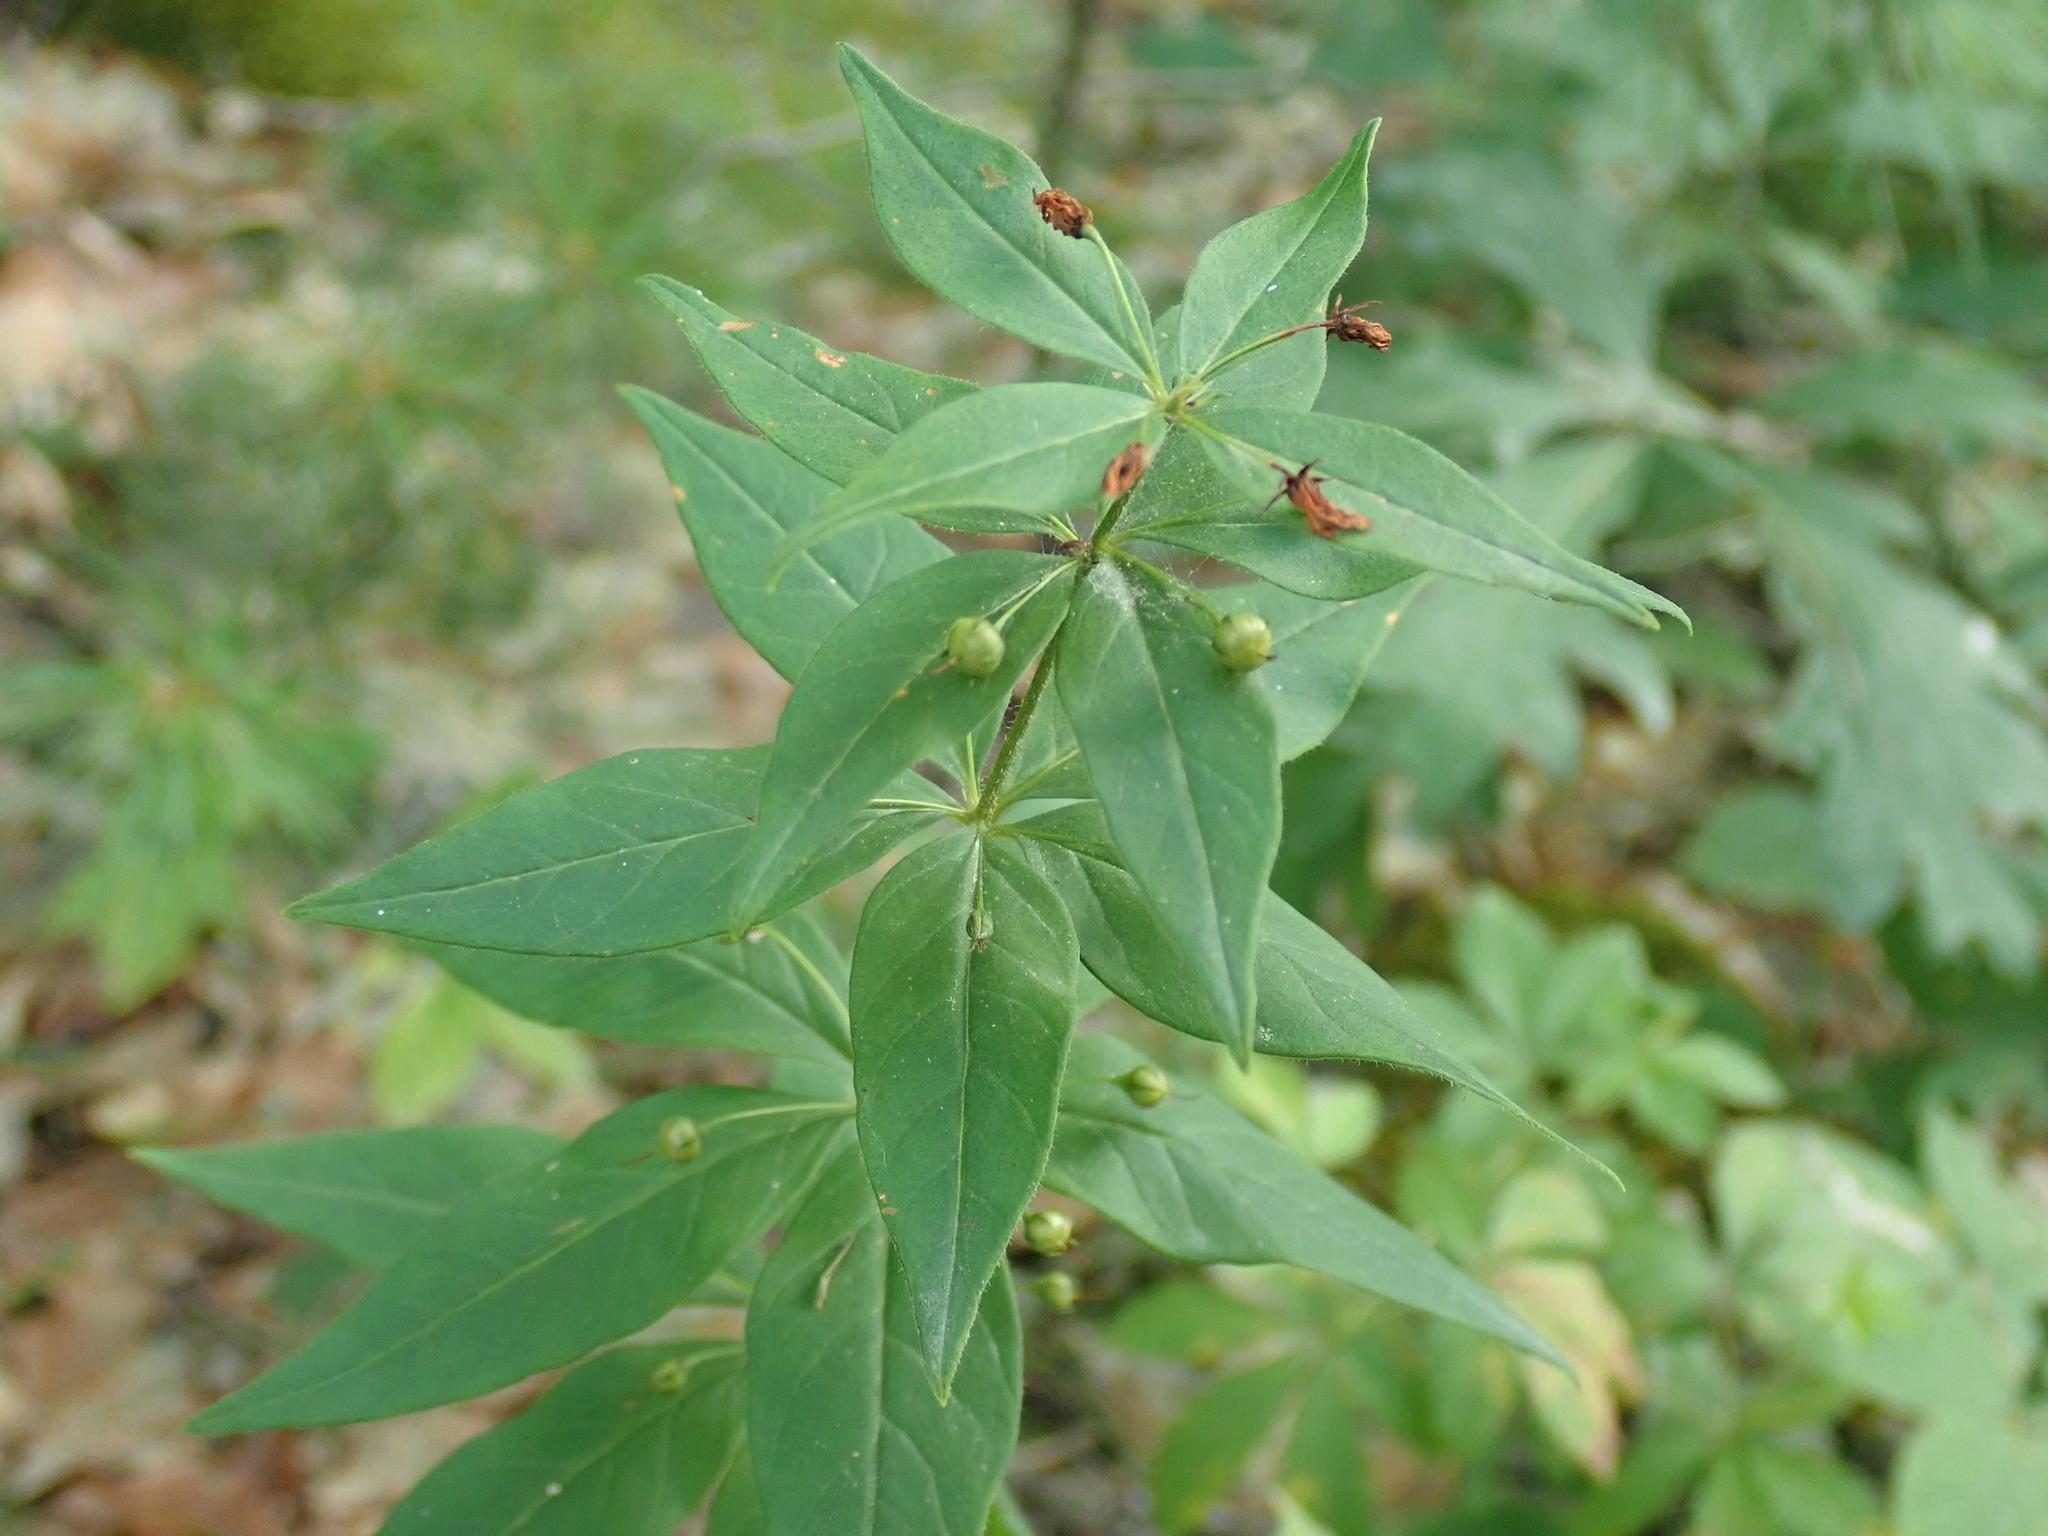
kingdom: Plantae
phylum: Tracheophyta
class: Magnoliopsida
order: Ericales
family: Primulaceae
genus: Lysimachia
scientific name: Lysimachia quadrifolia
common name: Whorled loosestrife
